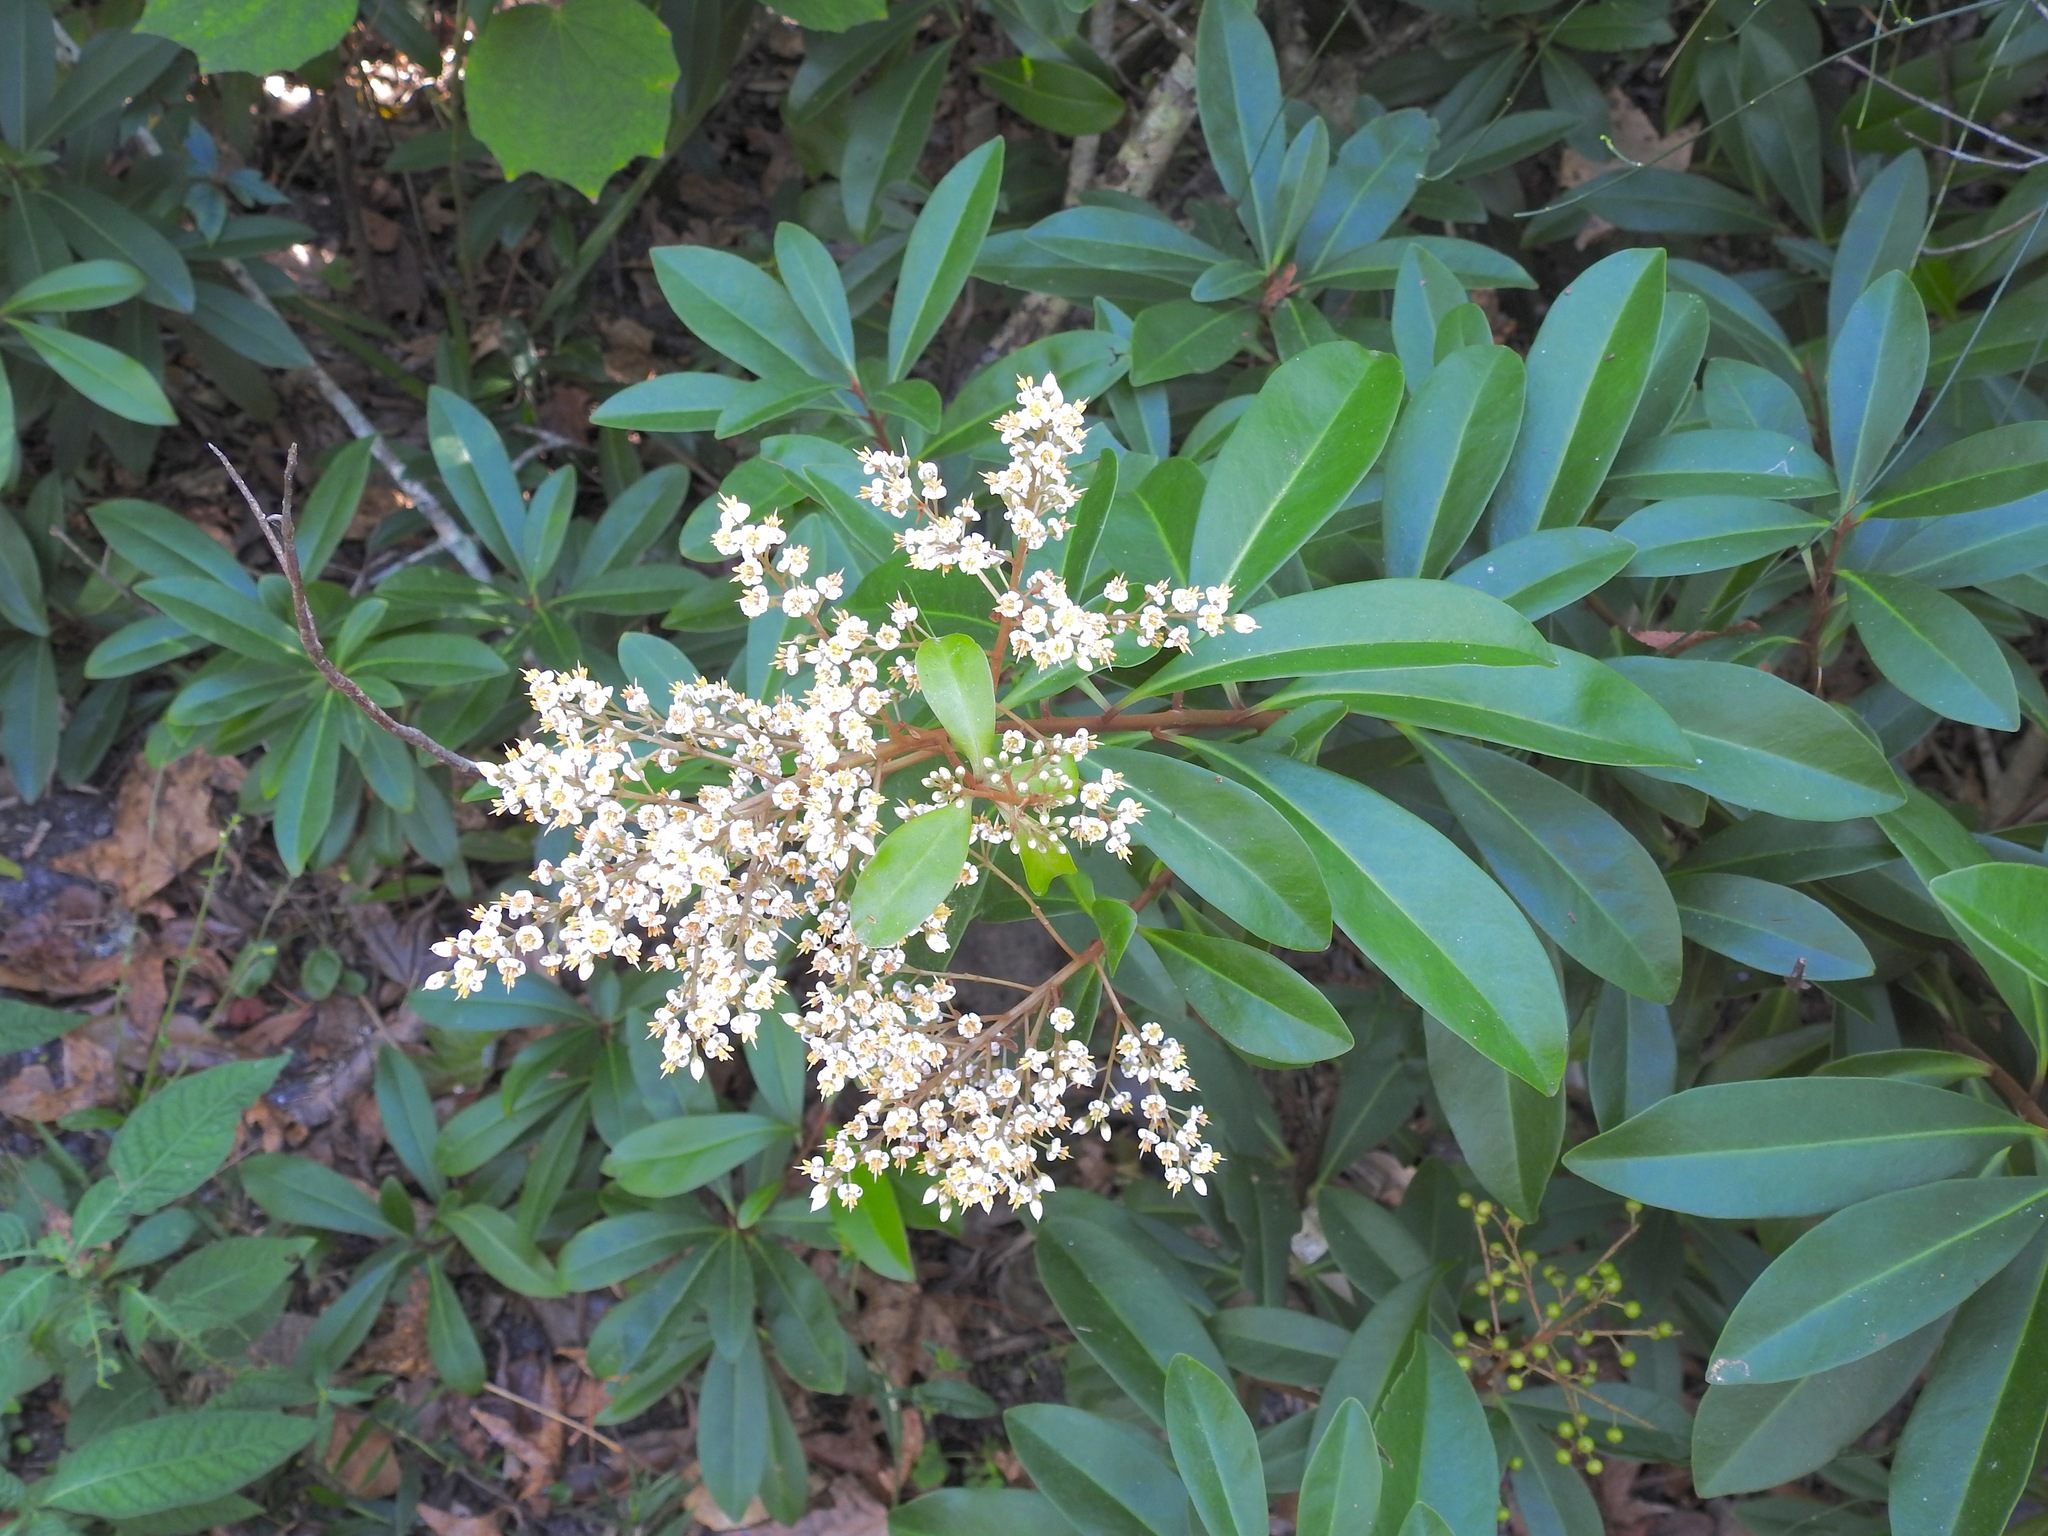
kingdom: Plantae
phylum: Tracheophyta
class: Magnoliopsida
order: Ericales
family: Primulaceae
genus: Ardisia
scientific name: Ardisia escallonioides
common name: Island marlberry
